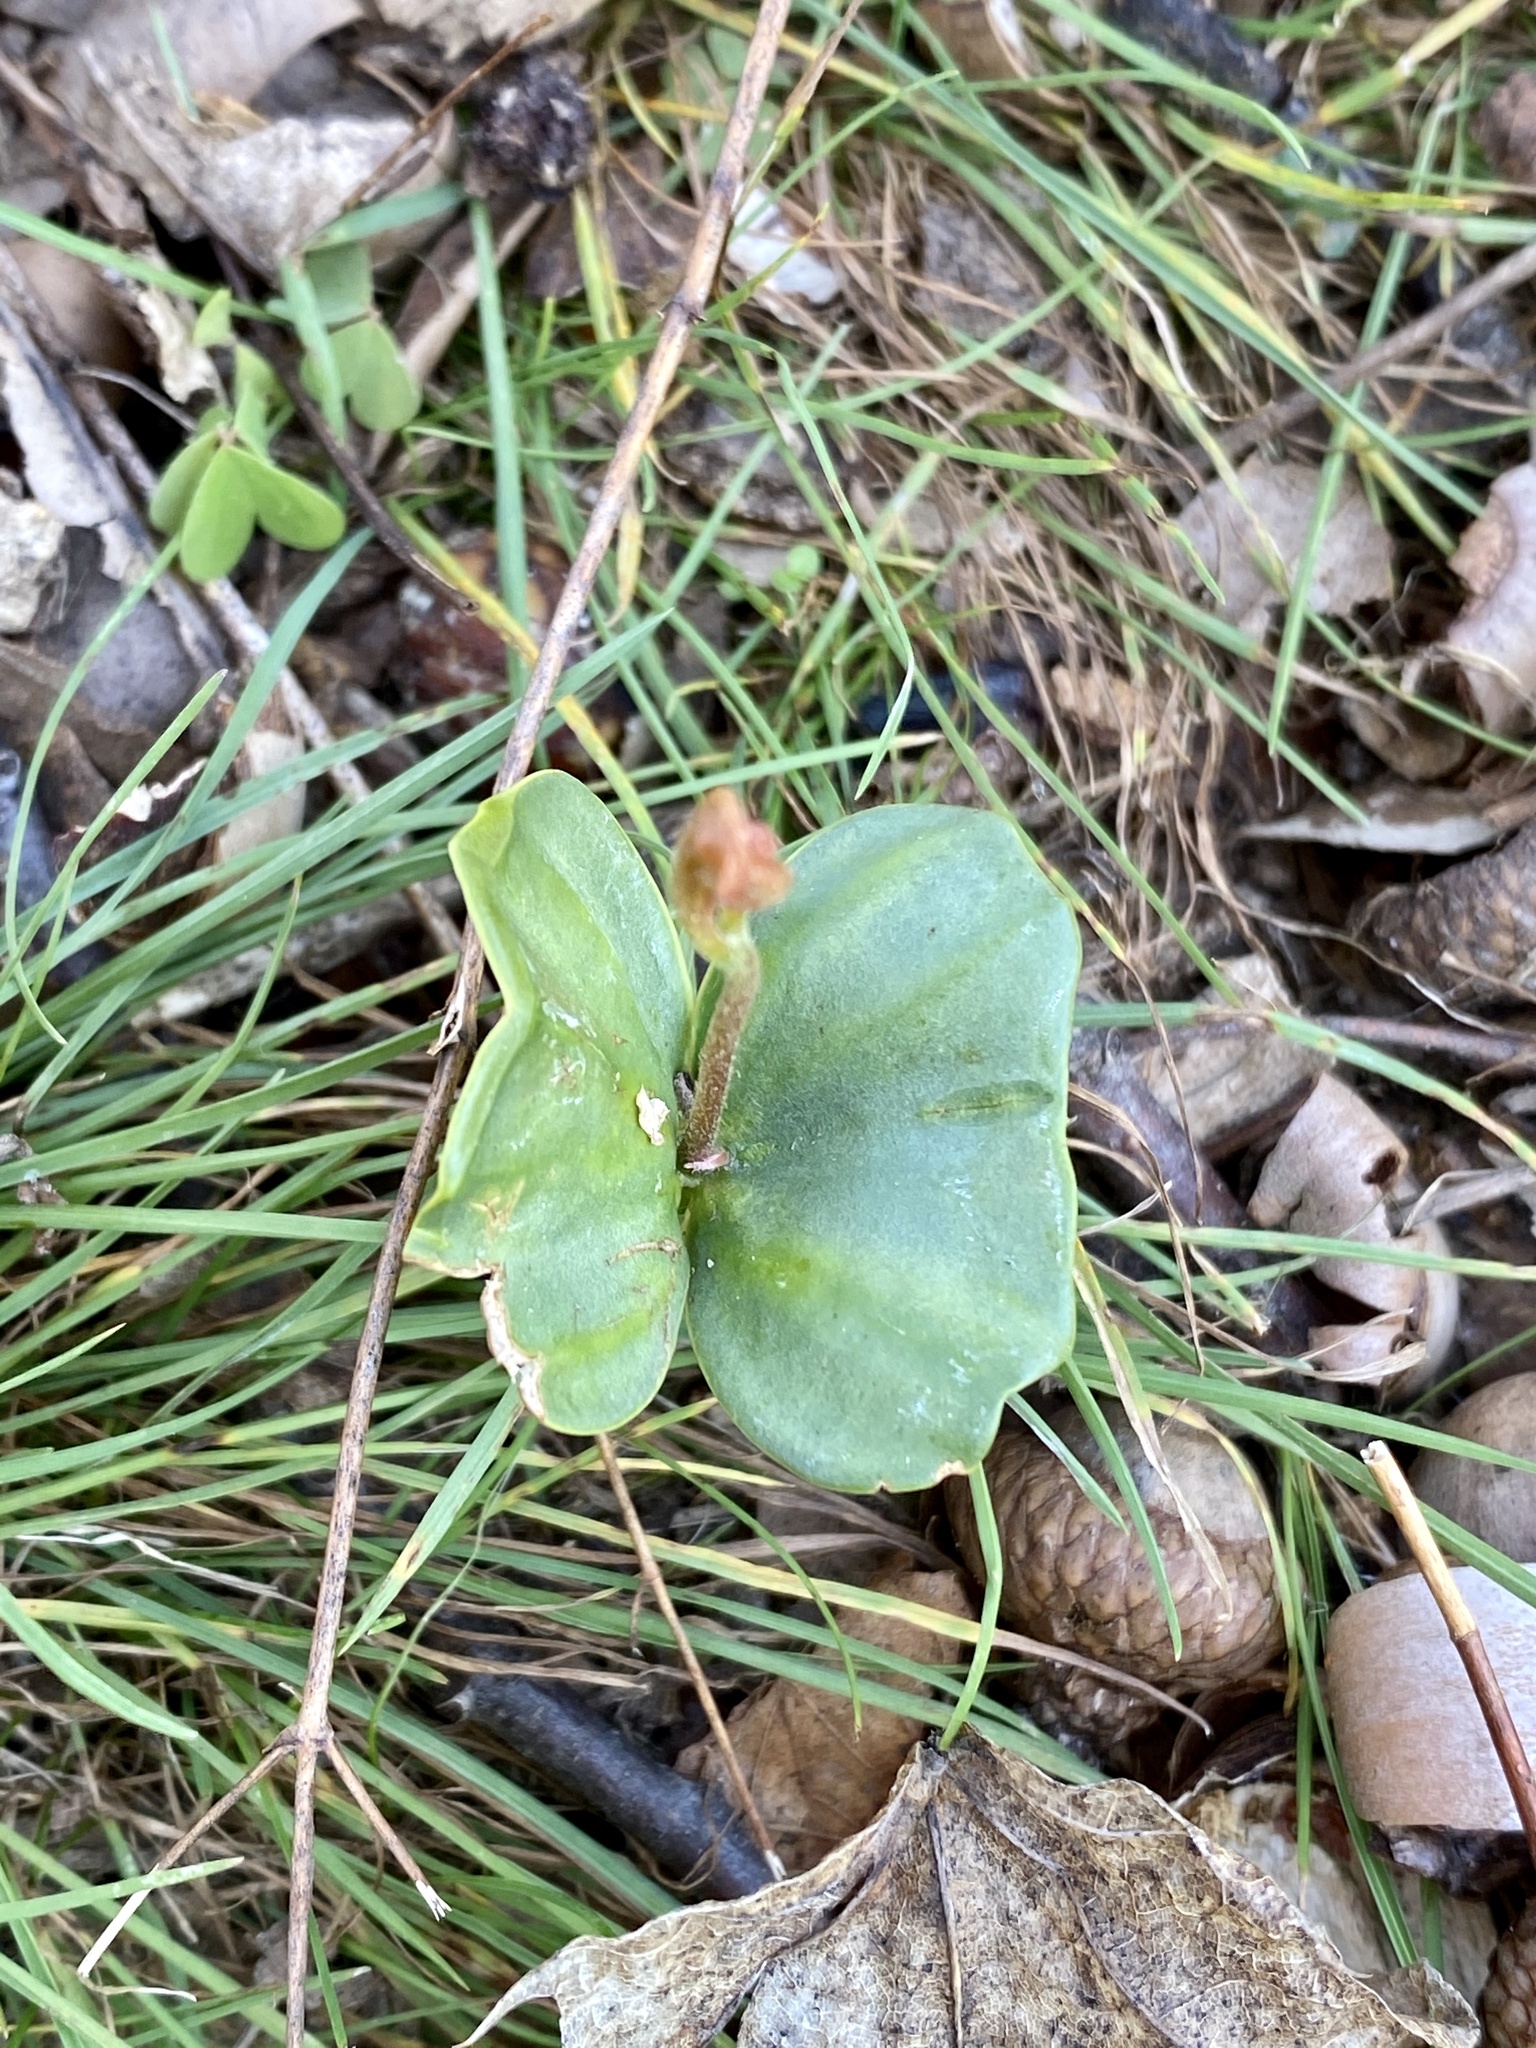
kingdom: Plantae
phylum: Tracheophyta
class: Magnoliopsida
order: Fagales
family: Fagaceae
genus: Fagus
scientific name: Fagus grandifolia
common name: American beech
